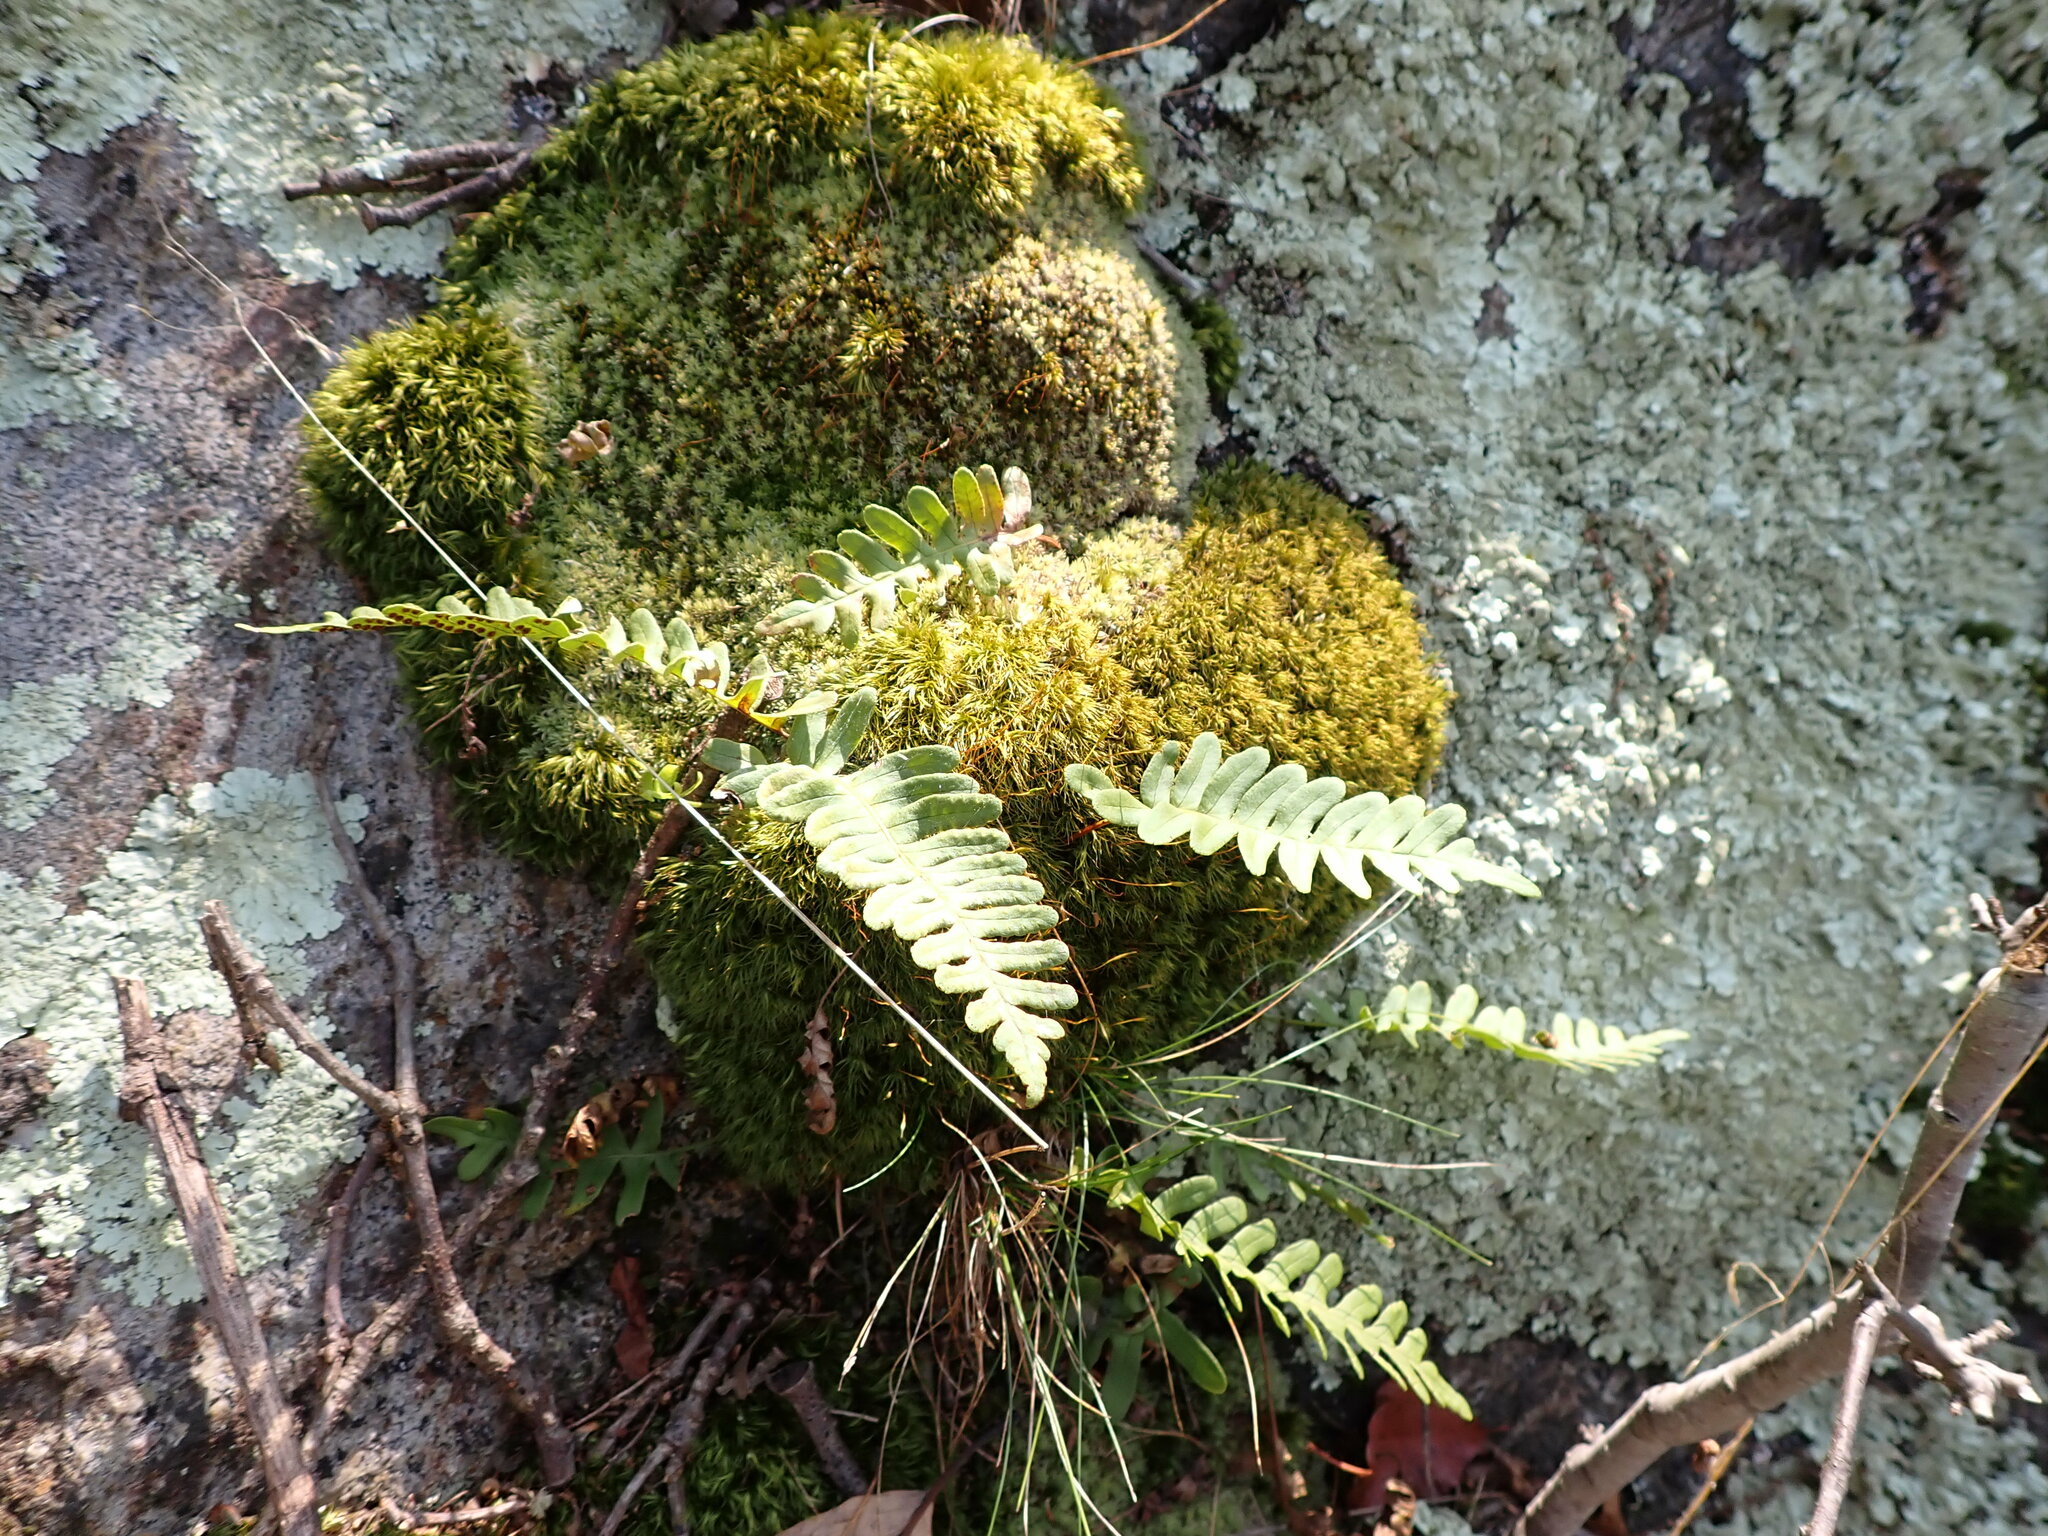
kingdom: Plantae
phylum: Tracheophyta
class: Polypodiopsida
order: Polypodiales
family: Polypodiaceae
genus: Polypodium
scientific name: Polypodium virginianum
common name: American wall fern
